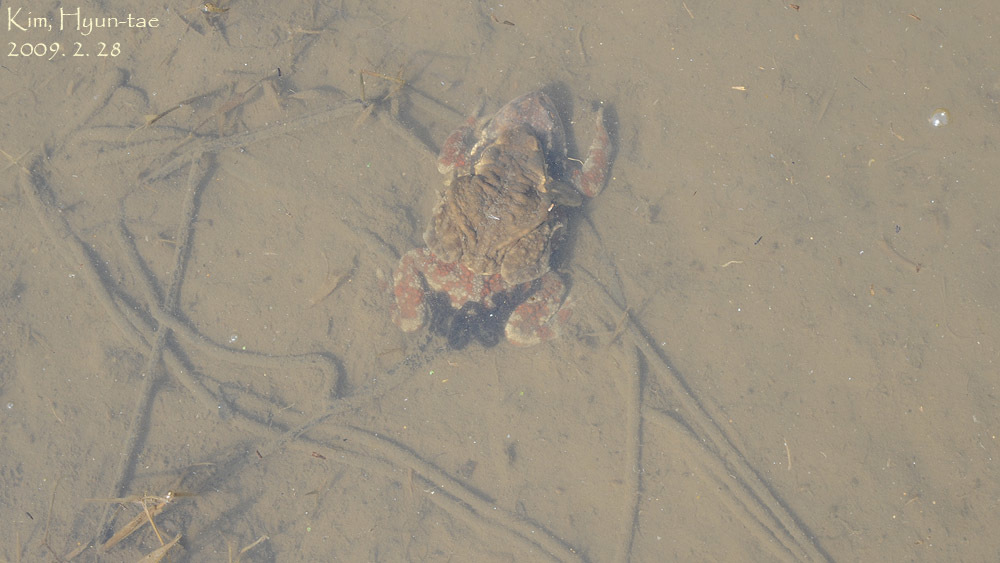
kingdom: Animalia
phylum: Chordata
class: Amphibia
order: Anura
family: Bufonidae
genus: Bufo
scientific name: Bufo gargarizans
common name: Asiatic toad
